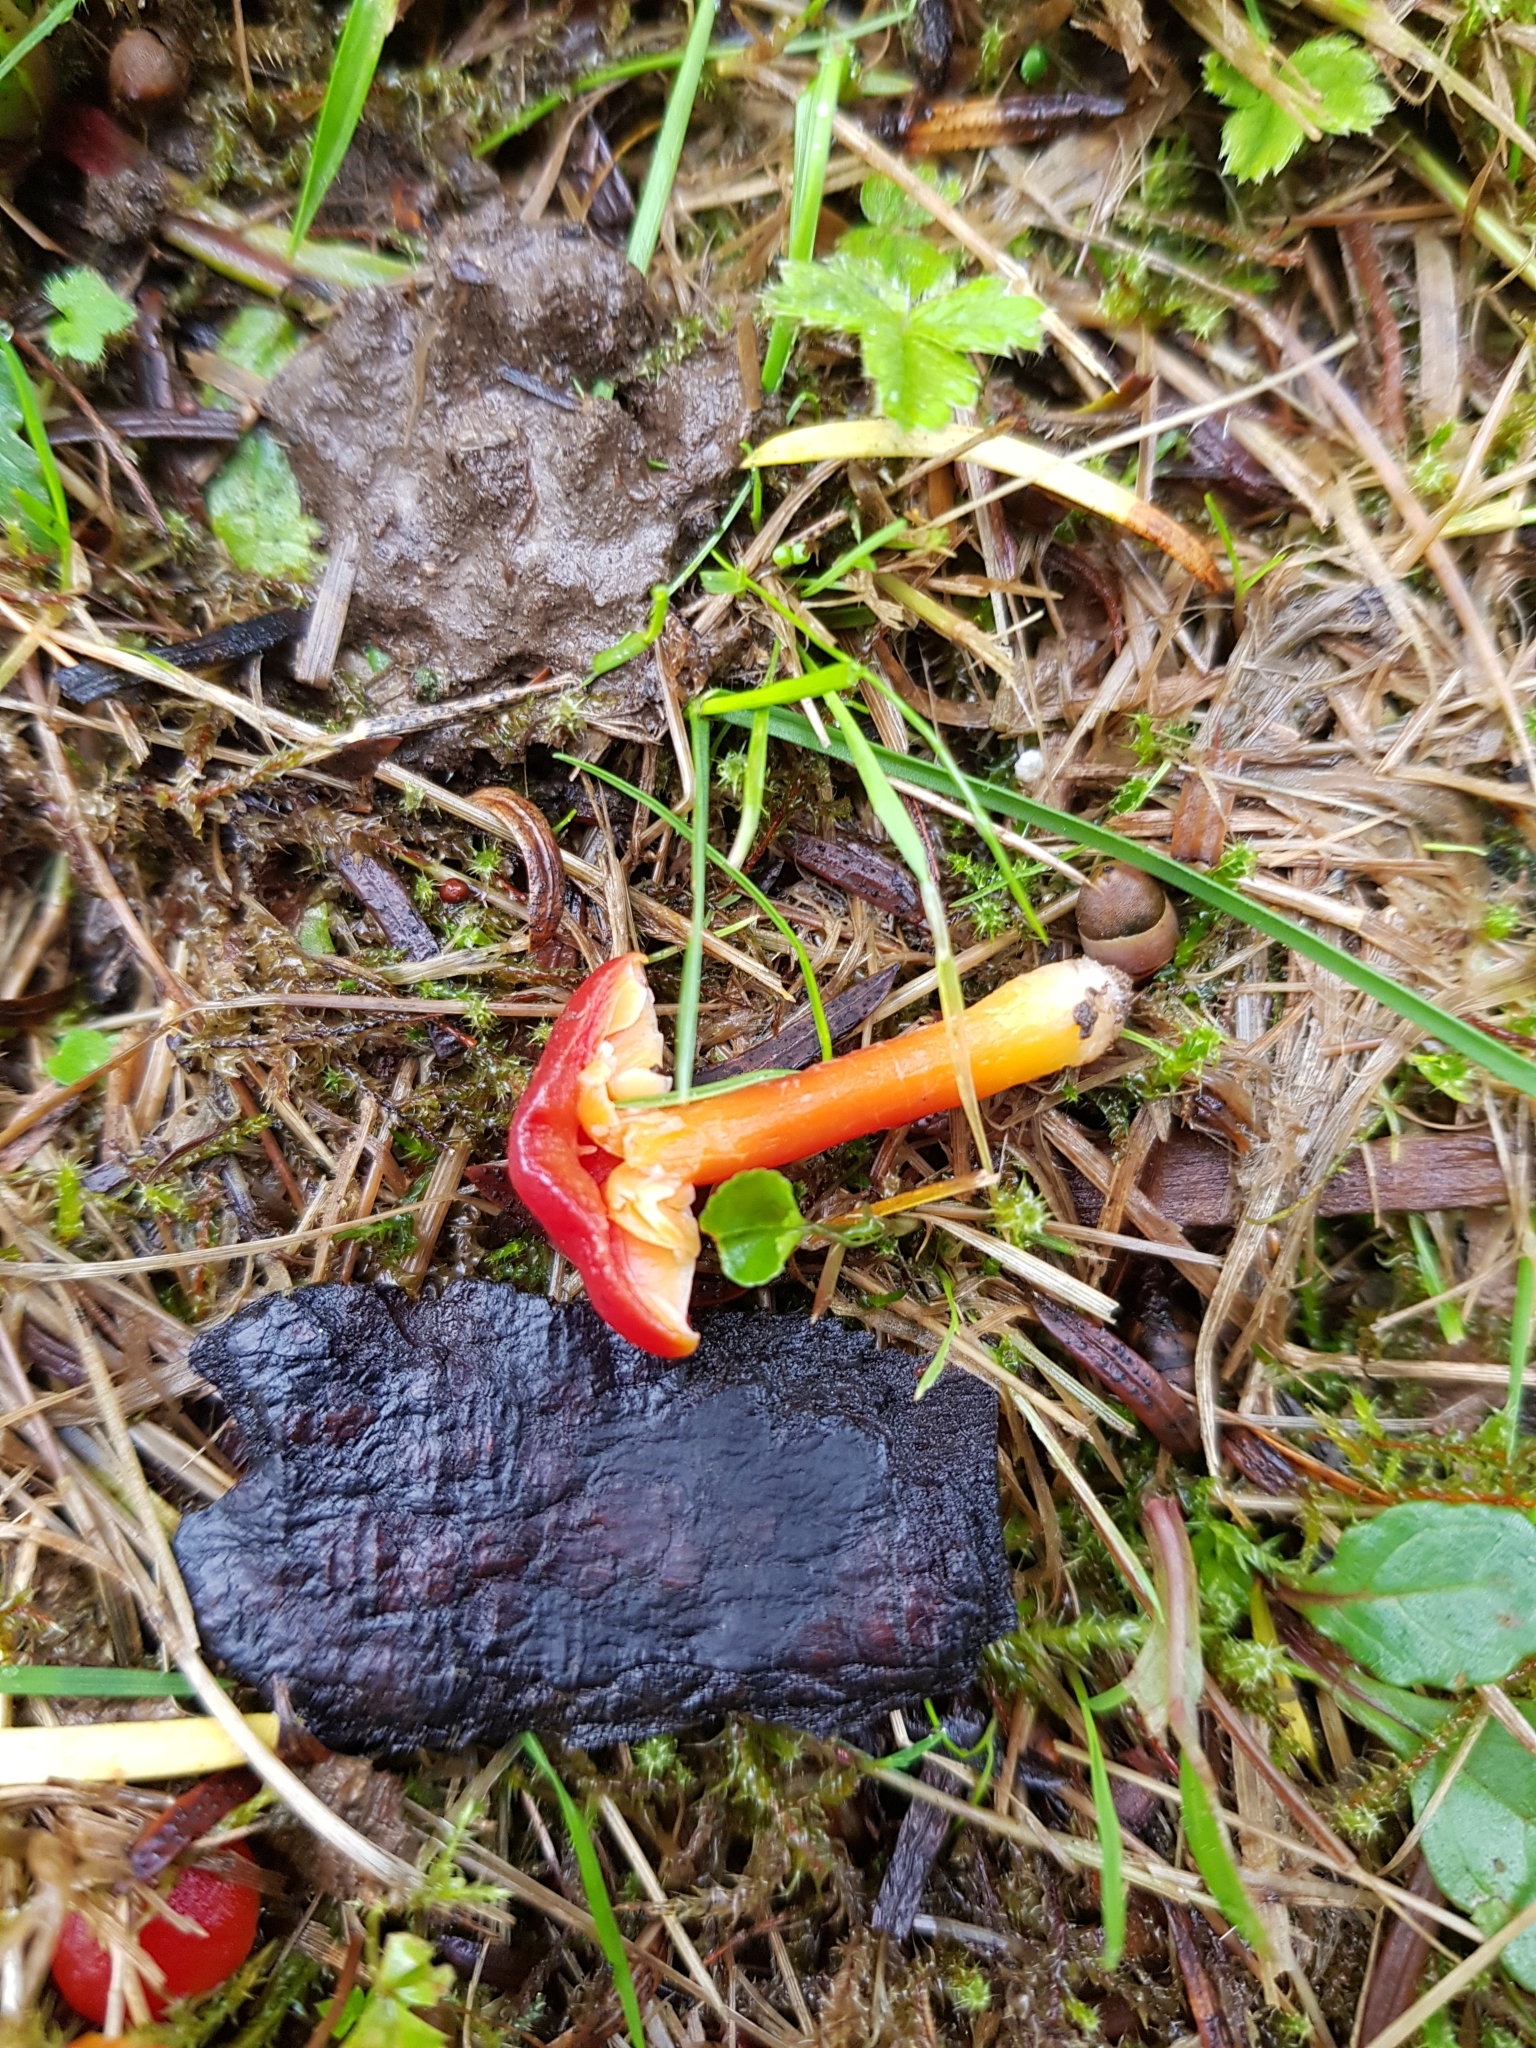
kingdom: Fungi
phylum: Basidiomycota
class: Agaricomycetes
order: Agaricales
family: Hygrophoraceae
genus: Hygrocybe
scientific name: Hygrocybe coccinea
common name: Scarlet hood
